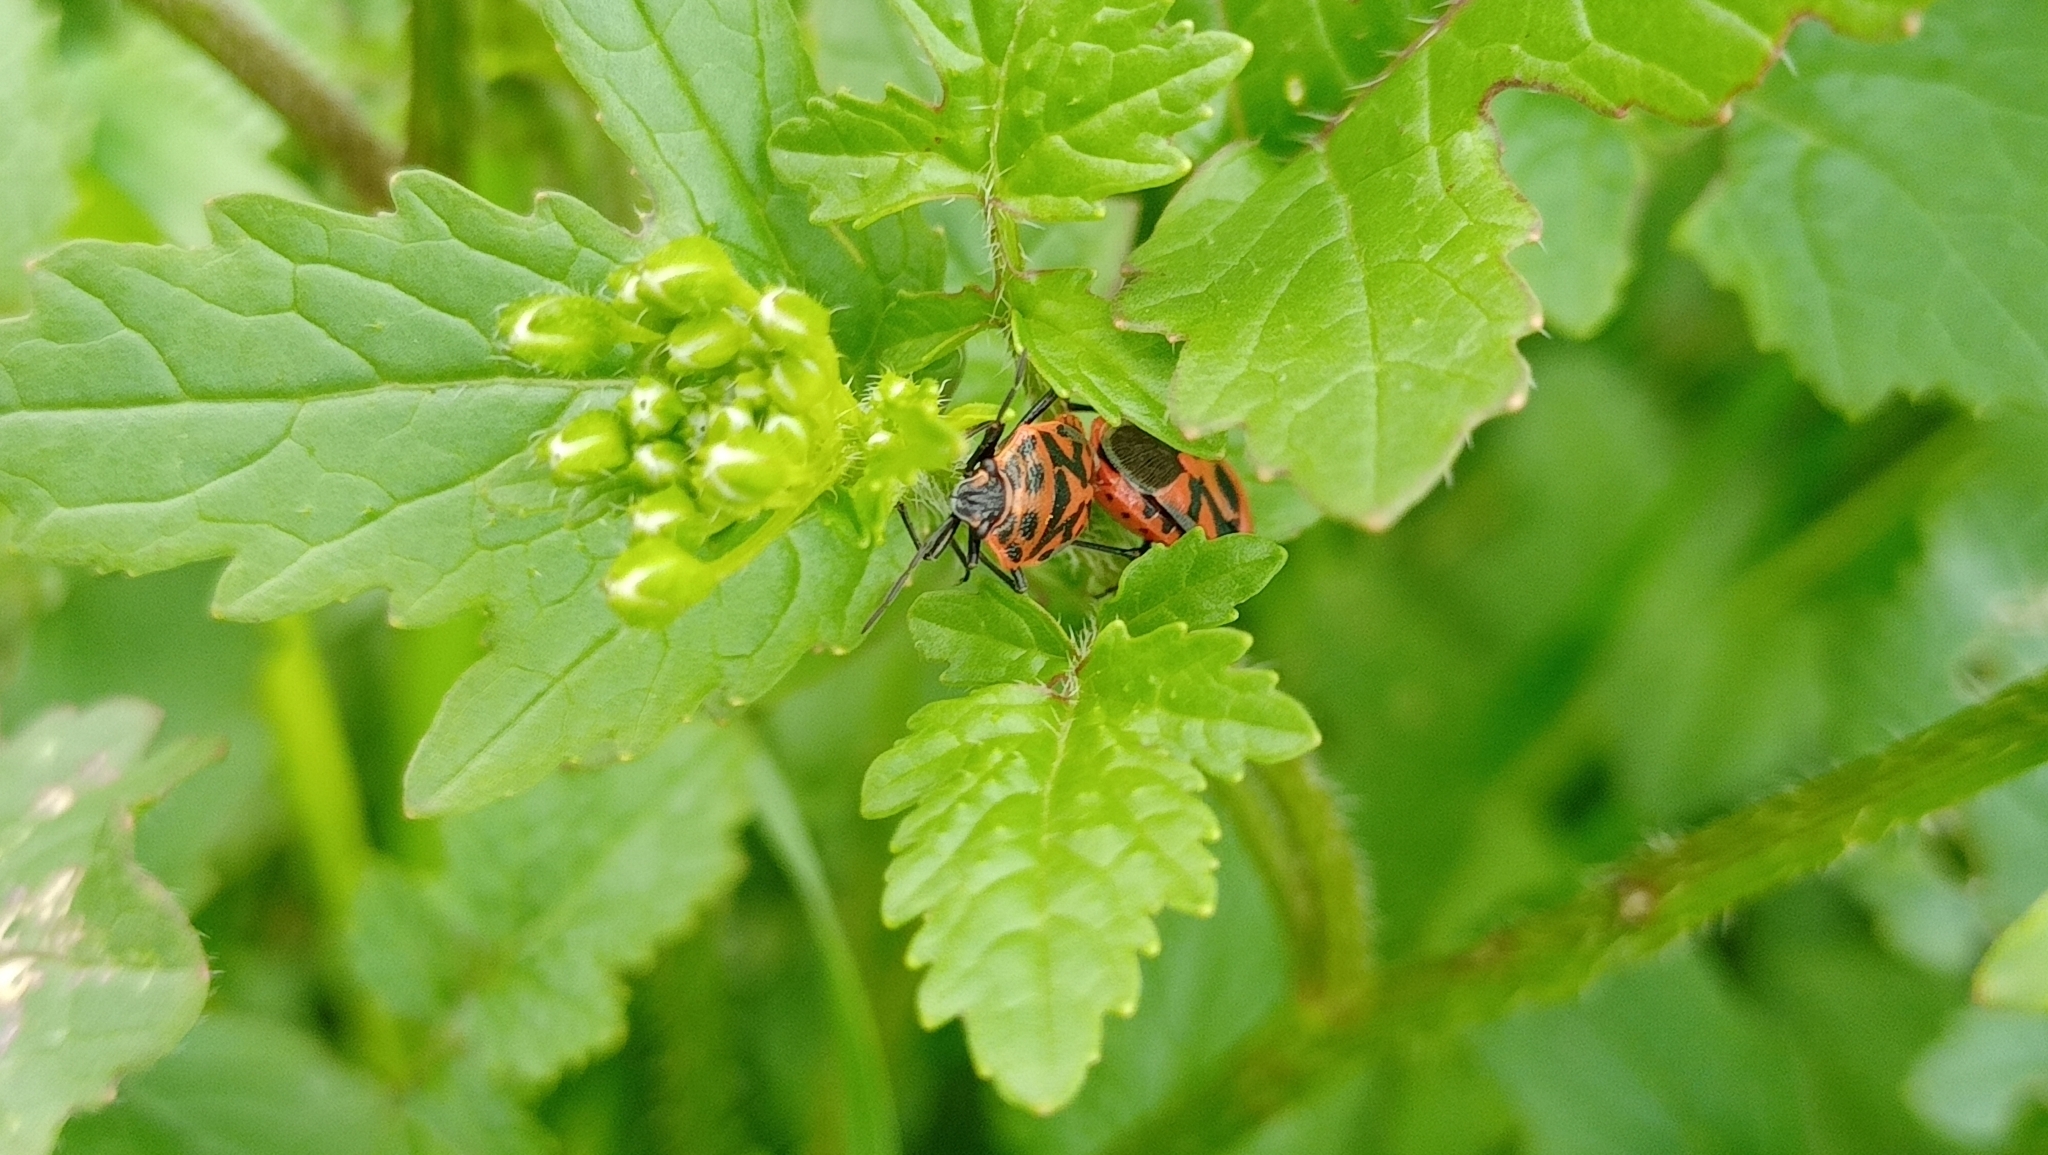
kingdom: Animalia
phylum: Arthropoda
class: Insecta
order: Hemiptera
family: Pentatomidae
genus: Eurydema
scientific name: Eurydema ornata
